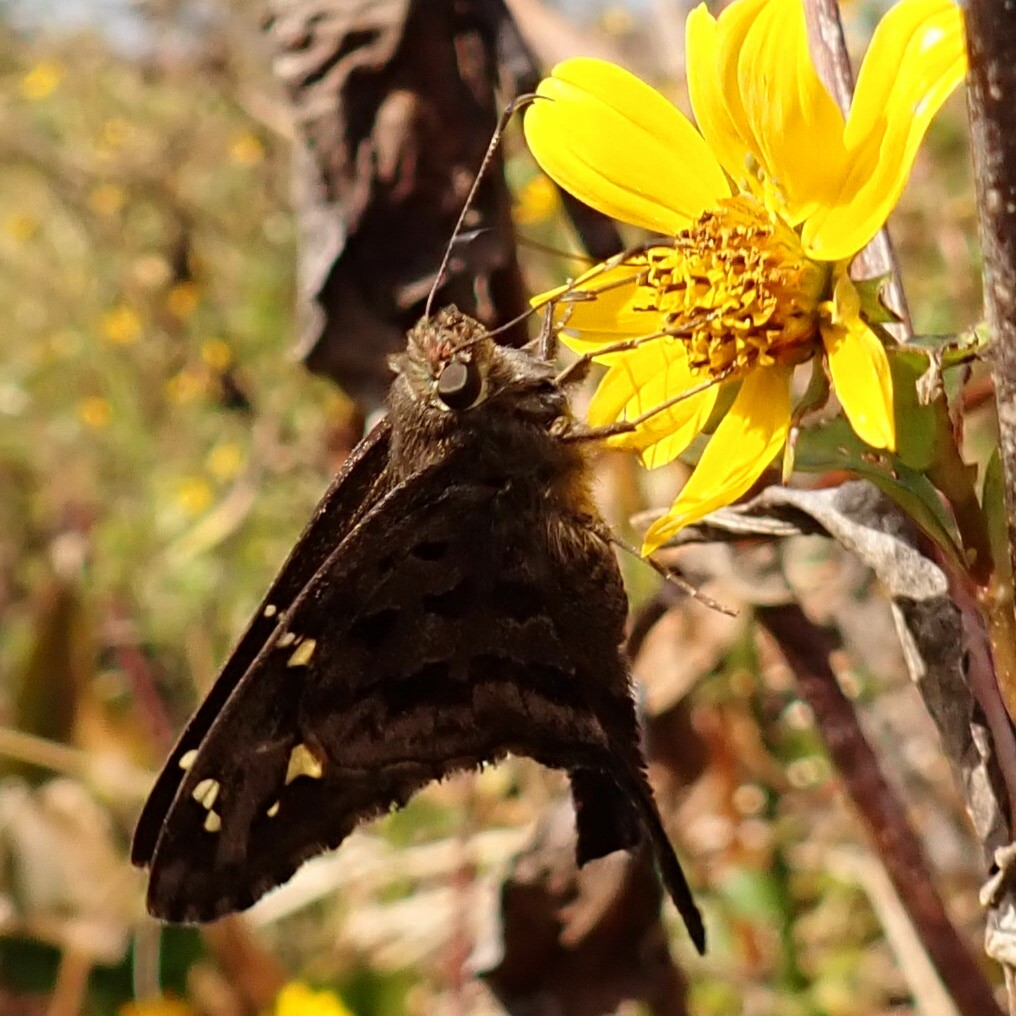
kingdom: Animalia
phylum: Arthropoda
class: Insecta
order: Lepidoptera
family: Hesperiidae
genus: Thorybes
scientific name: Thorybes
